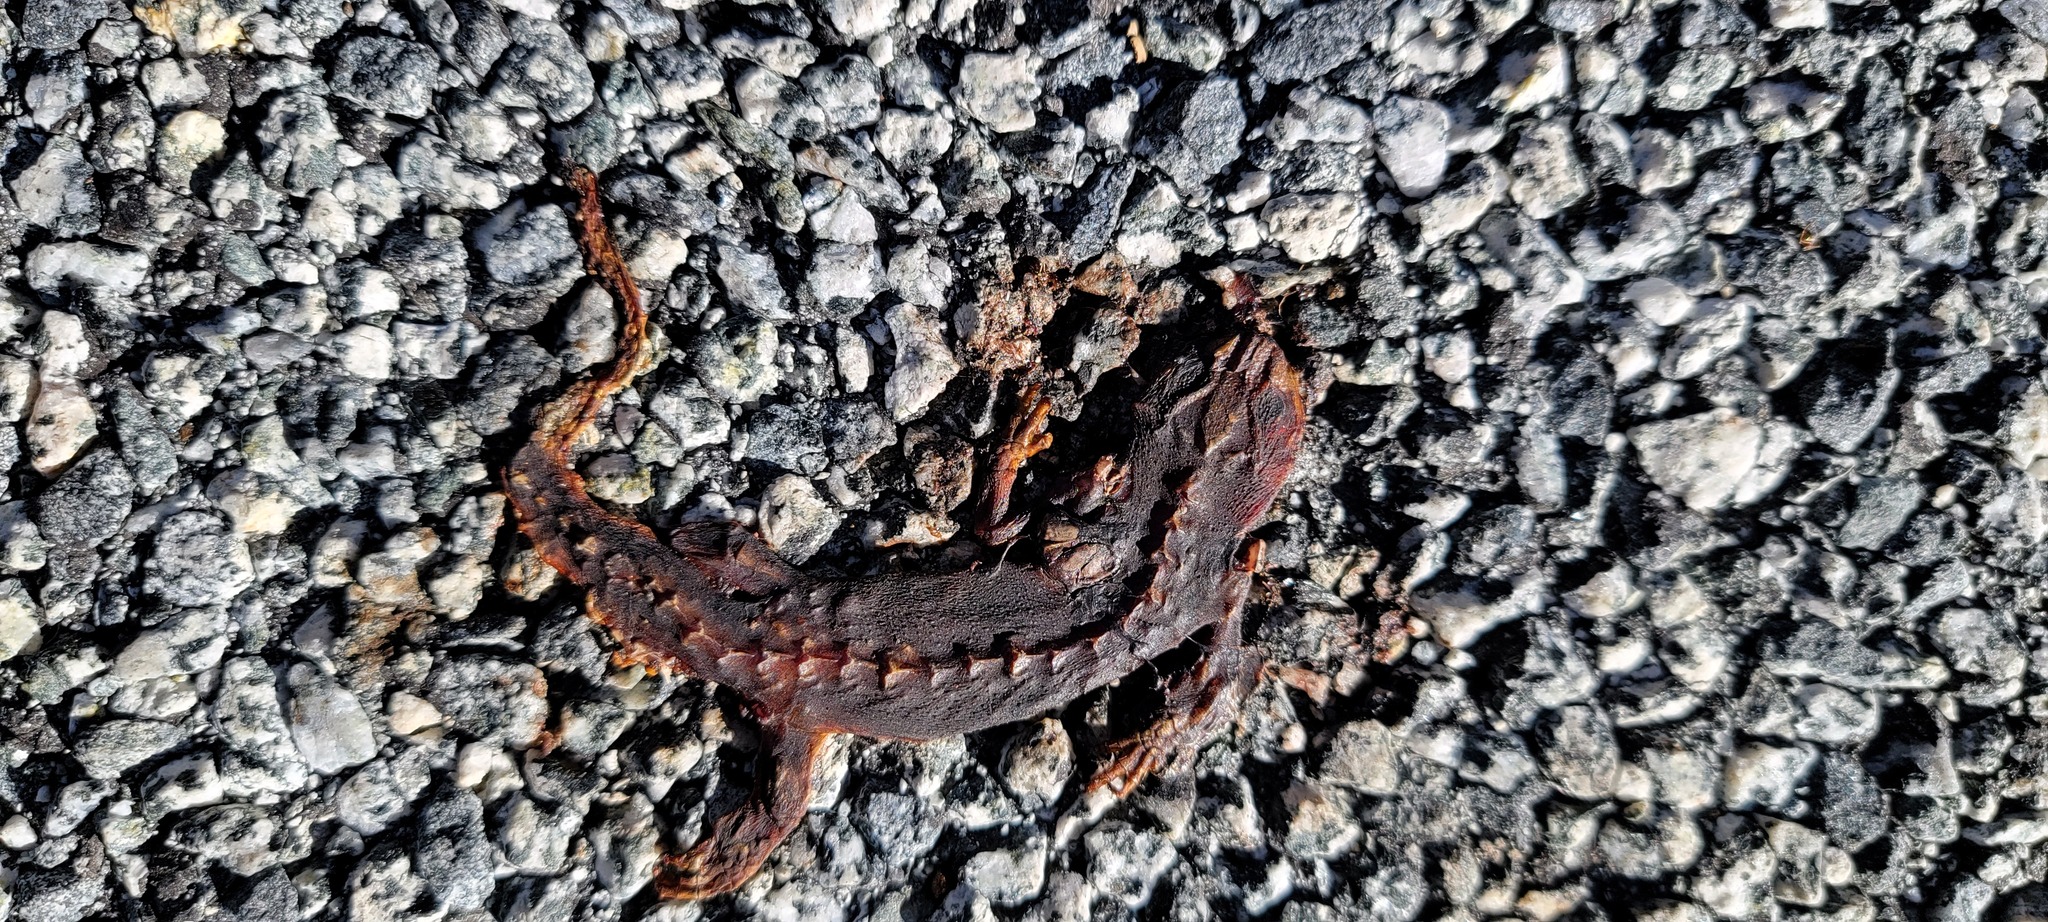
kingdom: Animalia
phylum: Chordata
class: Amphibia
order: Caudata
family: Salamandridae
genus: Taricha
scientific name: Taricha
